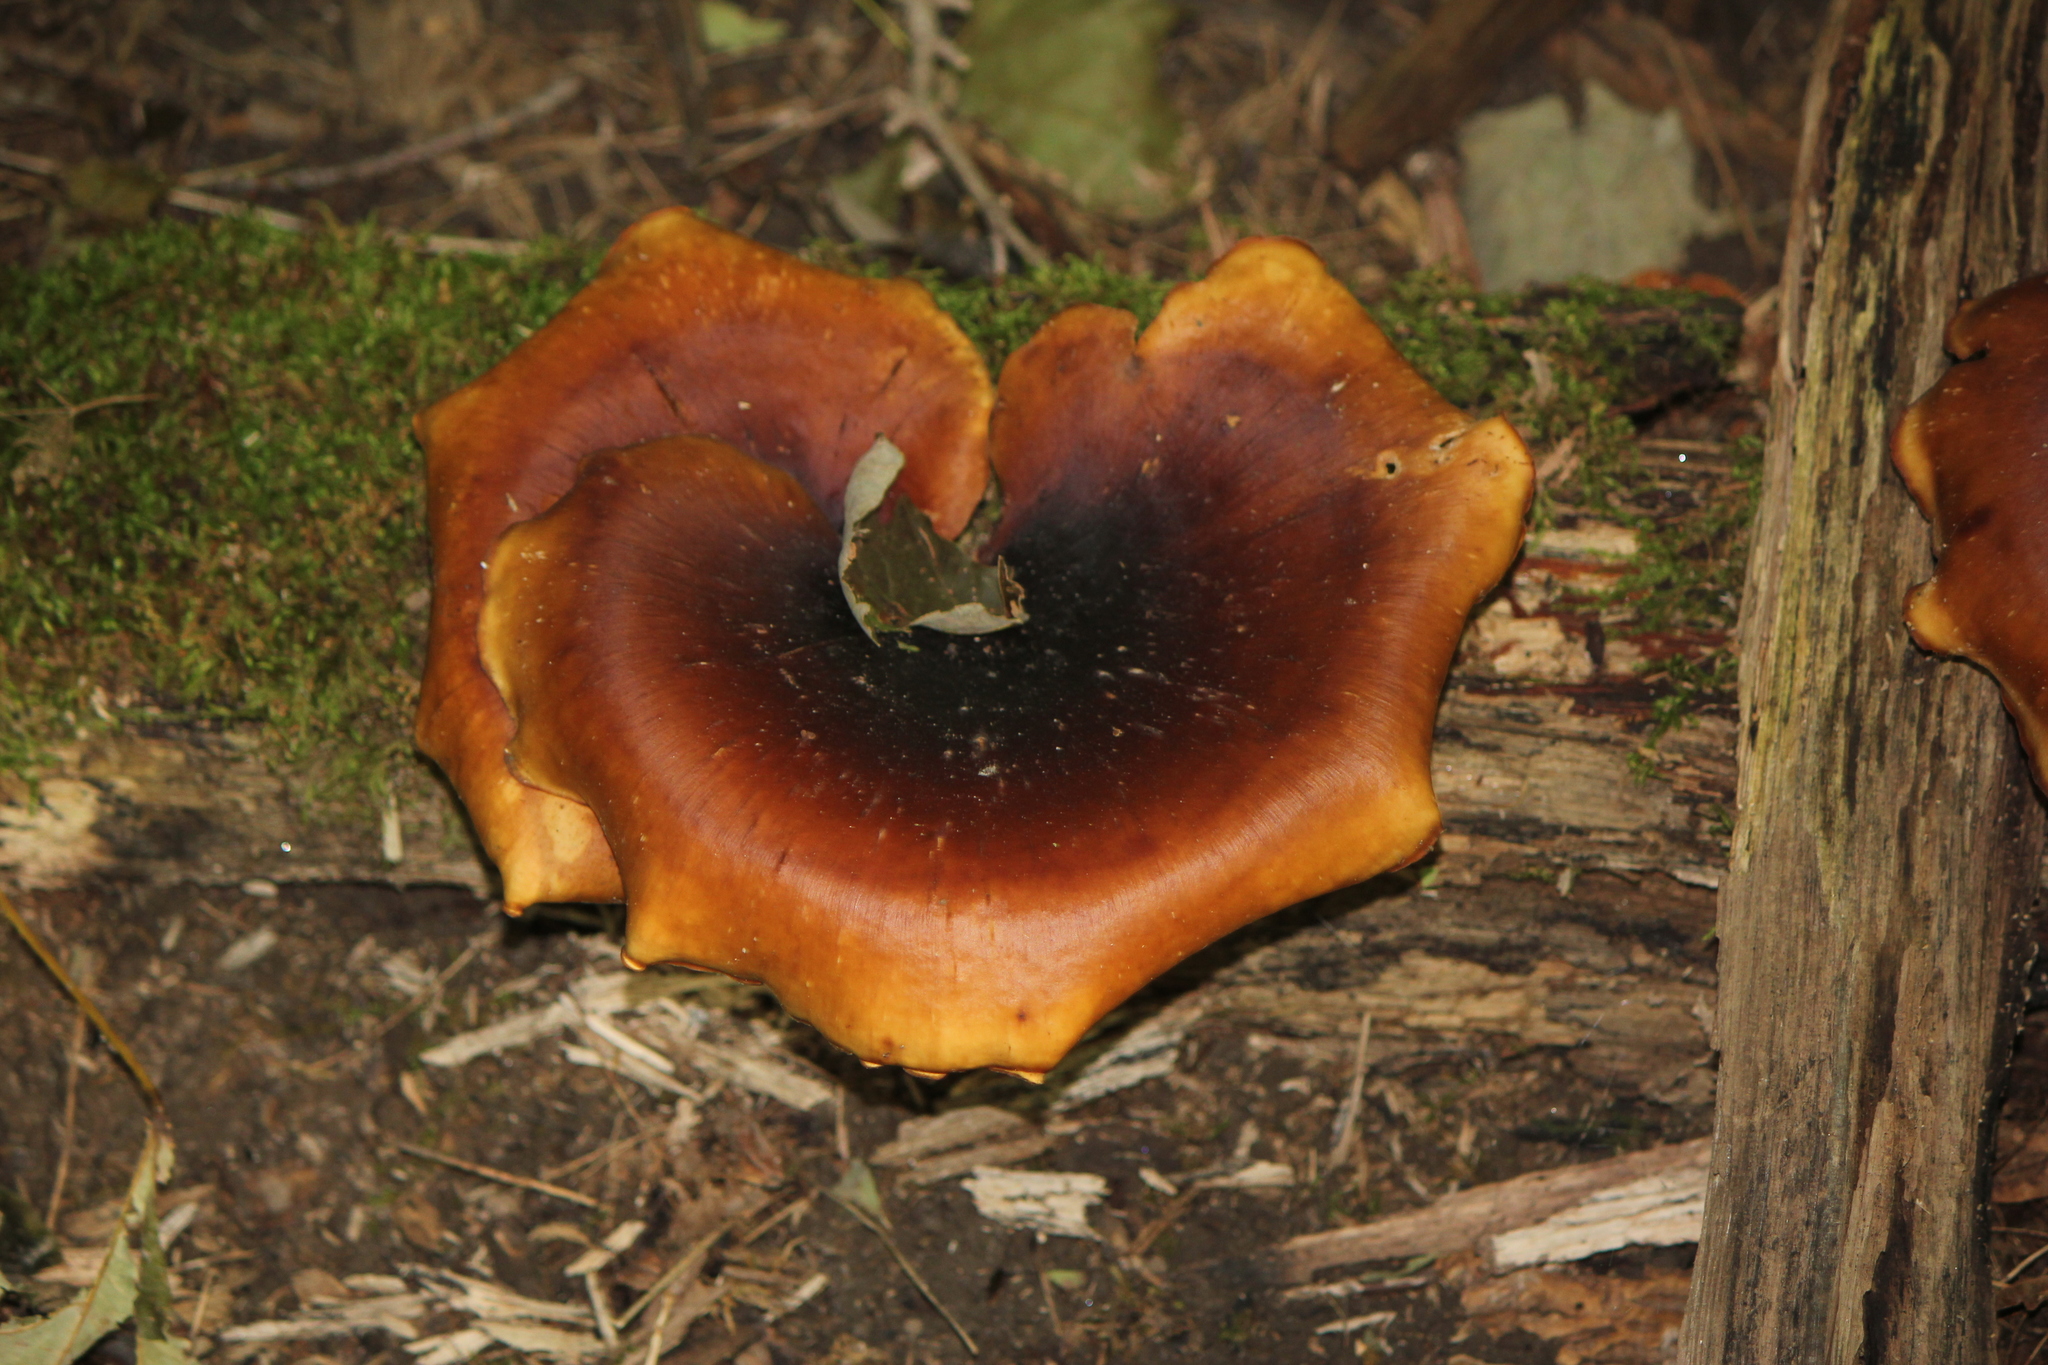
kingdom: Fungi
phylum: Basidiomycota
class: Agaricomycetes
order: Polyporales
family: Polyporaceae
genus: Picipes
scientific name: Picipes badius
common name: Bay polypore
